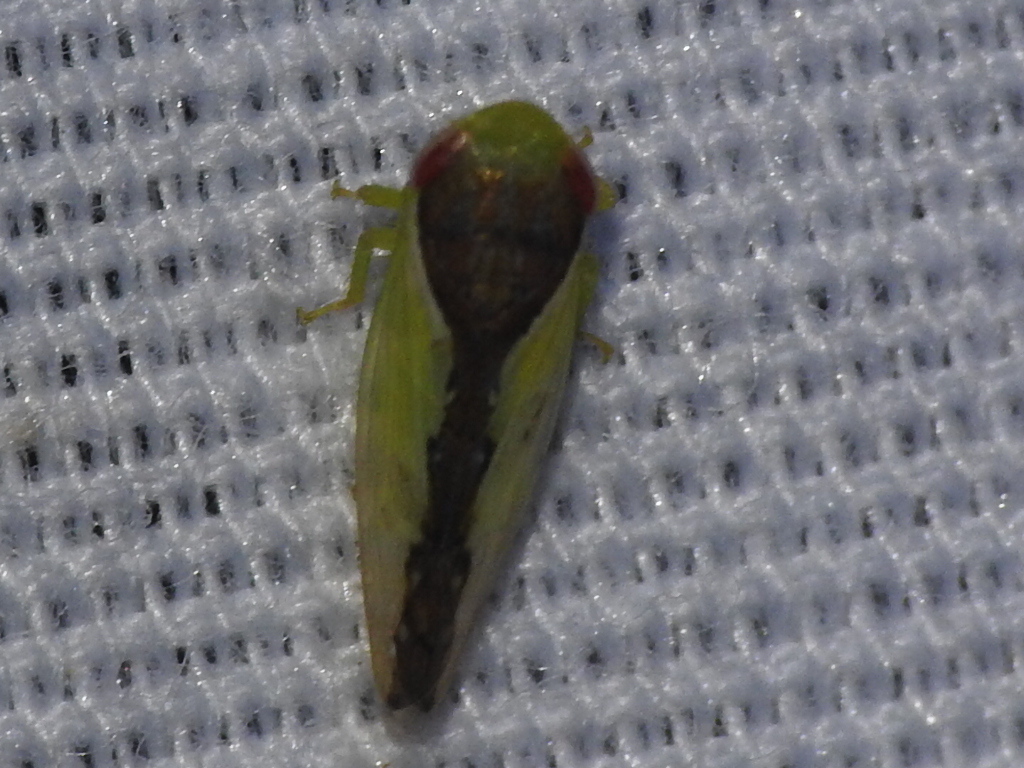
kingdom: Animalia
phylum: Arthropoda
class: Insecta
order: Hemiptera
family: Cicadellidae
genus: Omansobara ing
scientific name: Omansobara ing Omansobara palliolata
